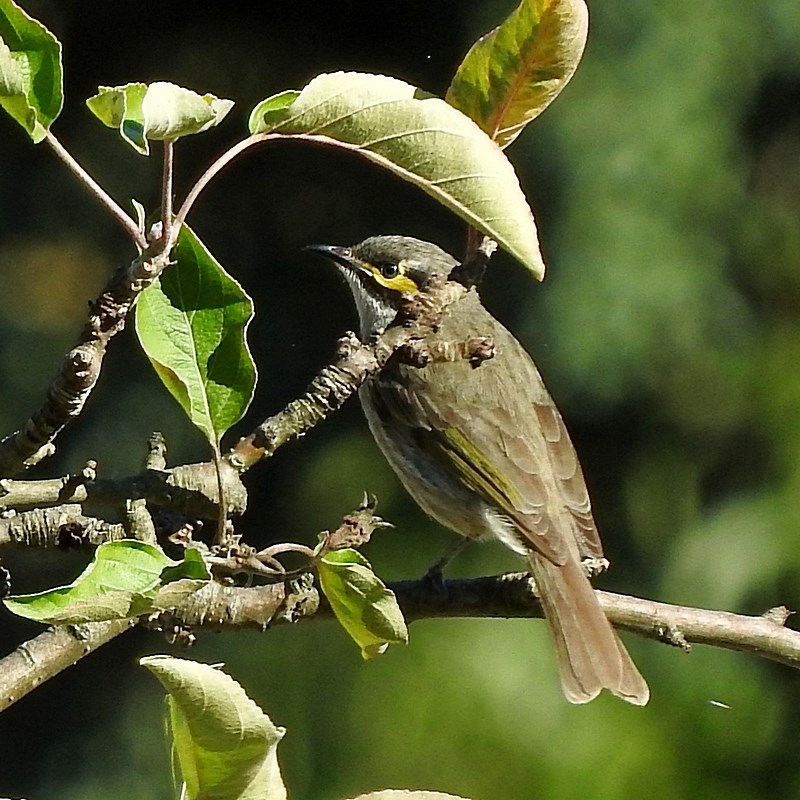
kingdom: Animalia
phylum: Chordata
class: Aves
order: Passeriformes
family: Meliphagidae
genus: Caligavis
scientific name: Caligavis chrysops
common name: Yellow-faced honeyeater
